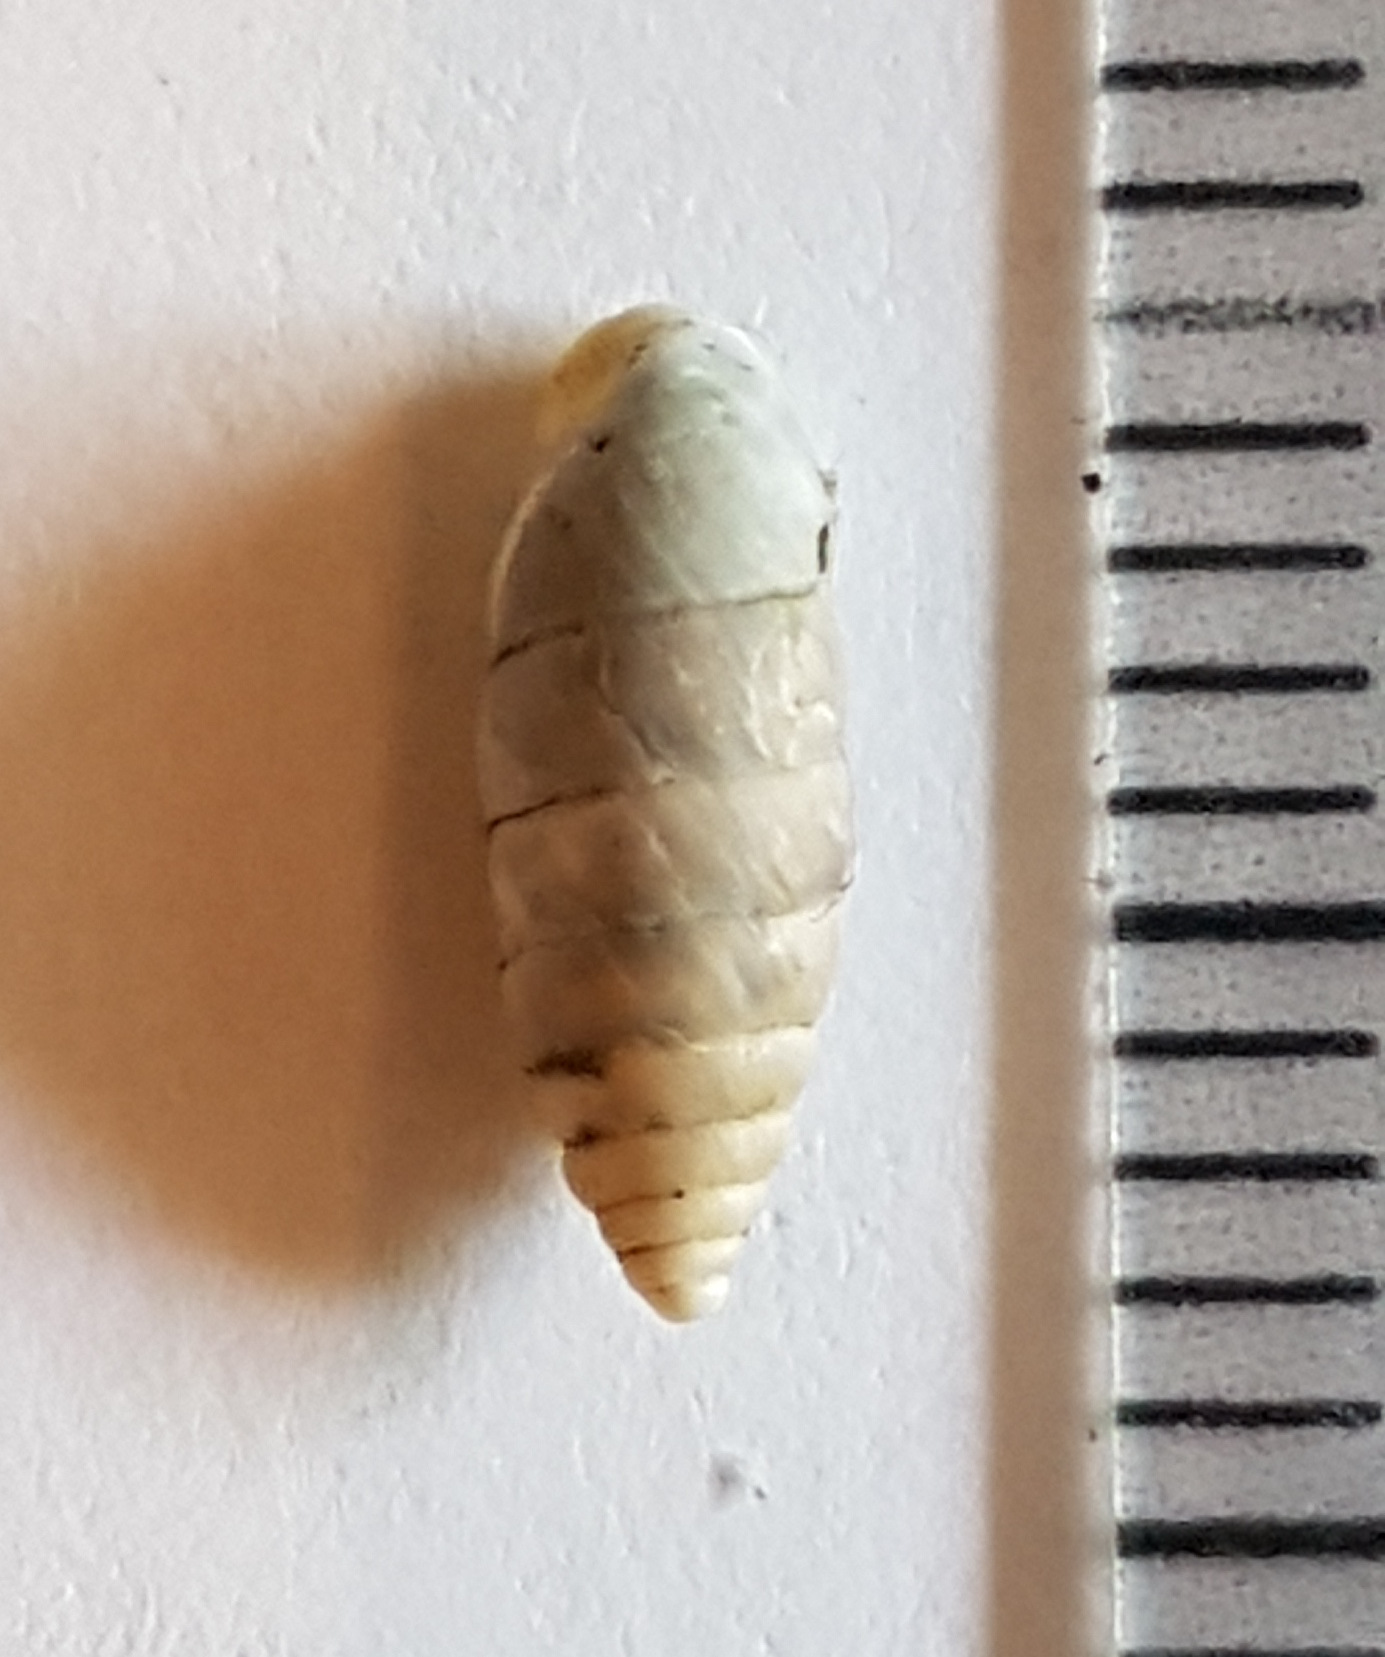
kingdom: Animalia
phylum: Mollusca
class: Gastropoda
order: Stylommatophora
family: Chondrinidae
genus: Granaria
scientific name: Granaria variabilis
